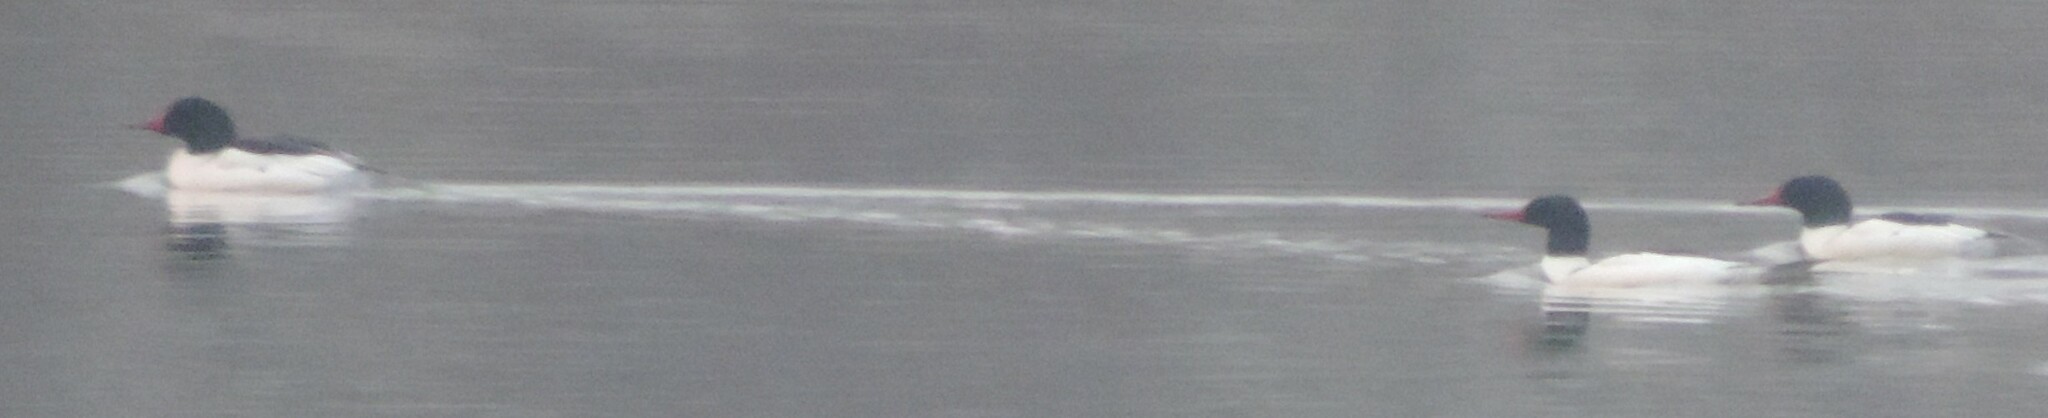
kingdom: Animalia
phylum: Chordata
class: Aves
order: Anseriformes
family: Anatidae
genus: Mergus
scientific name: Mergus merganser
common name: Common merganser
